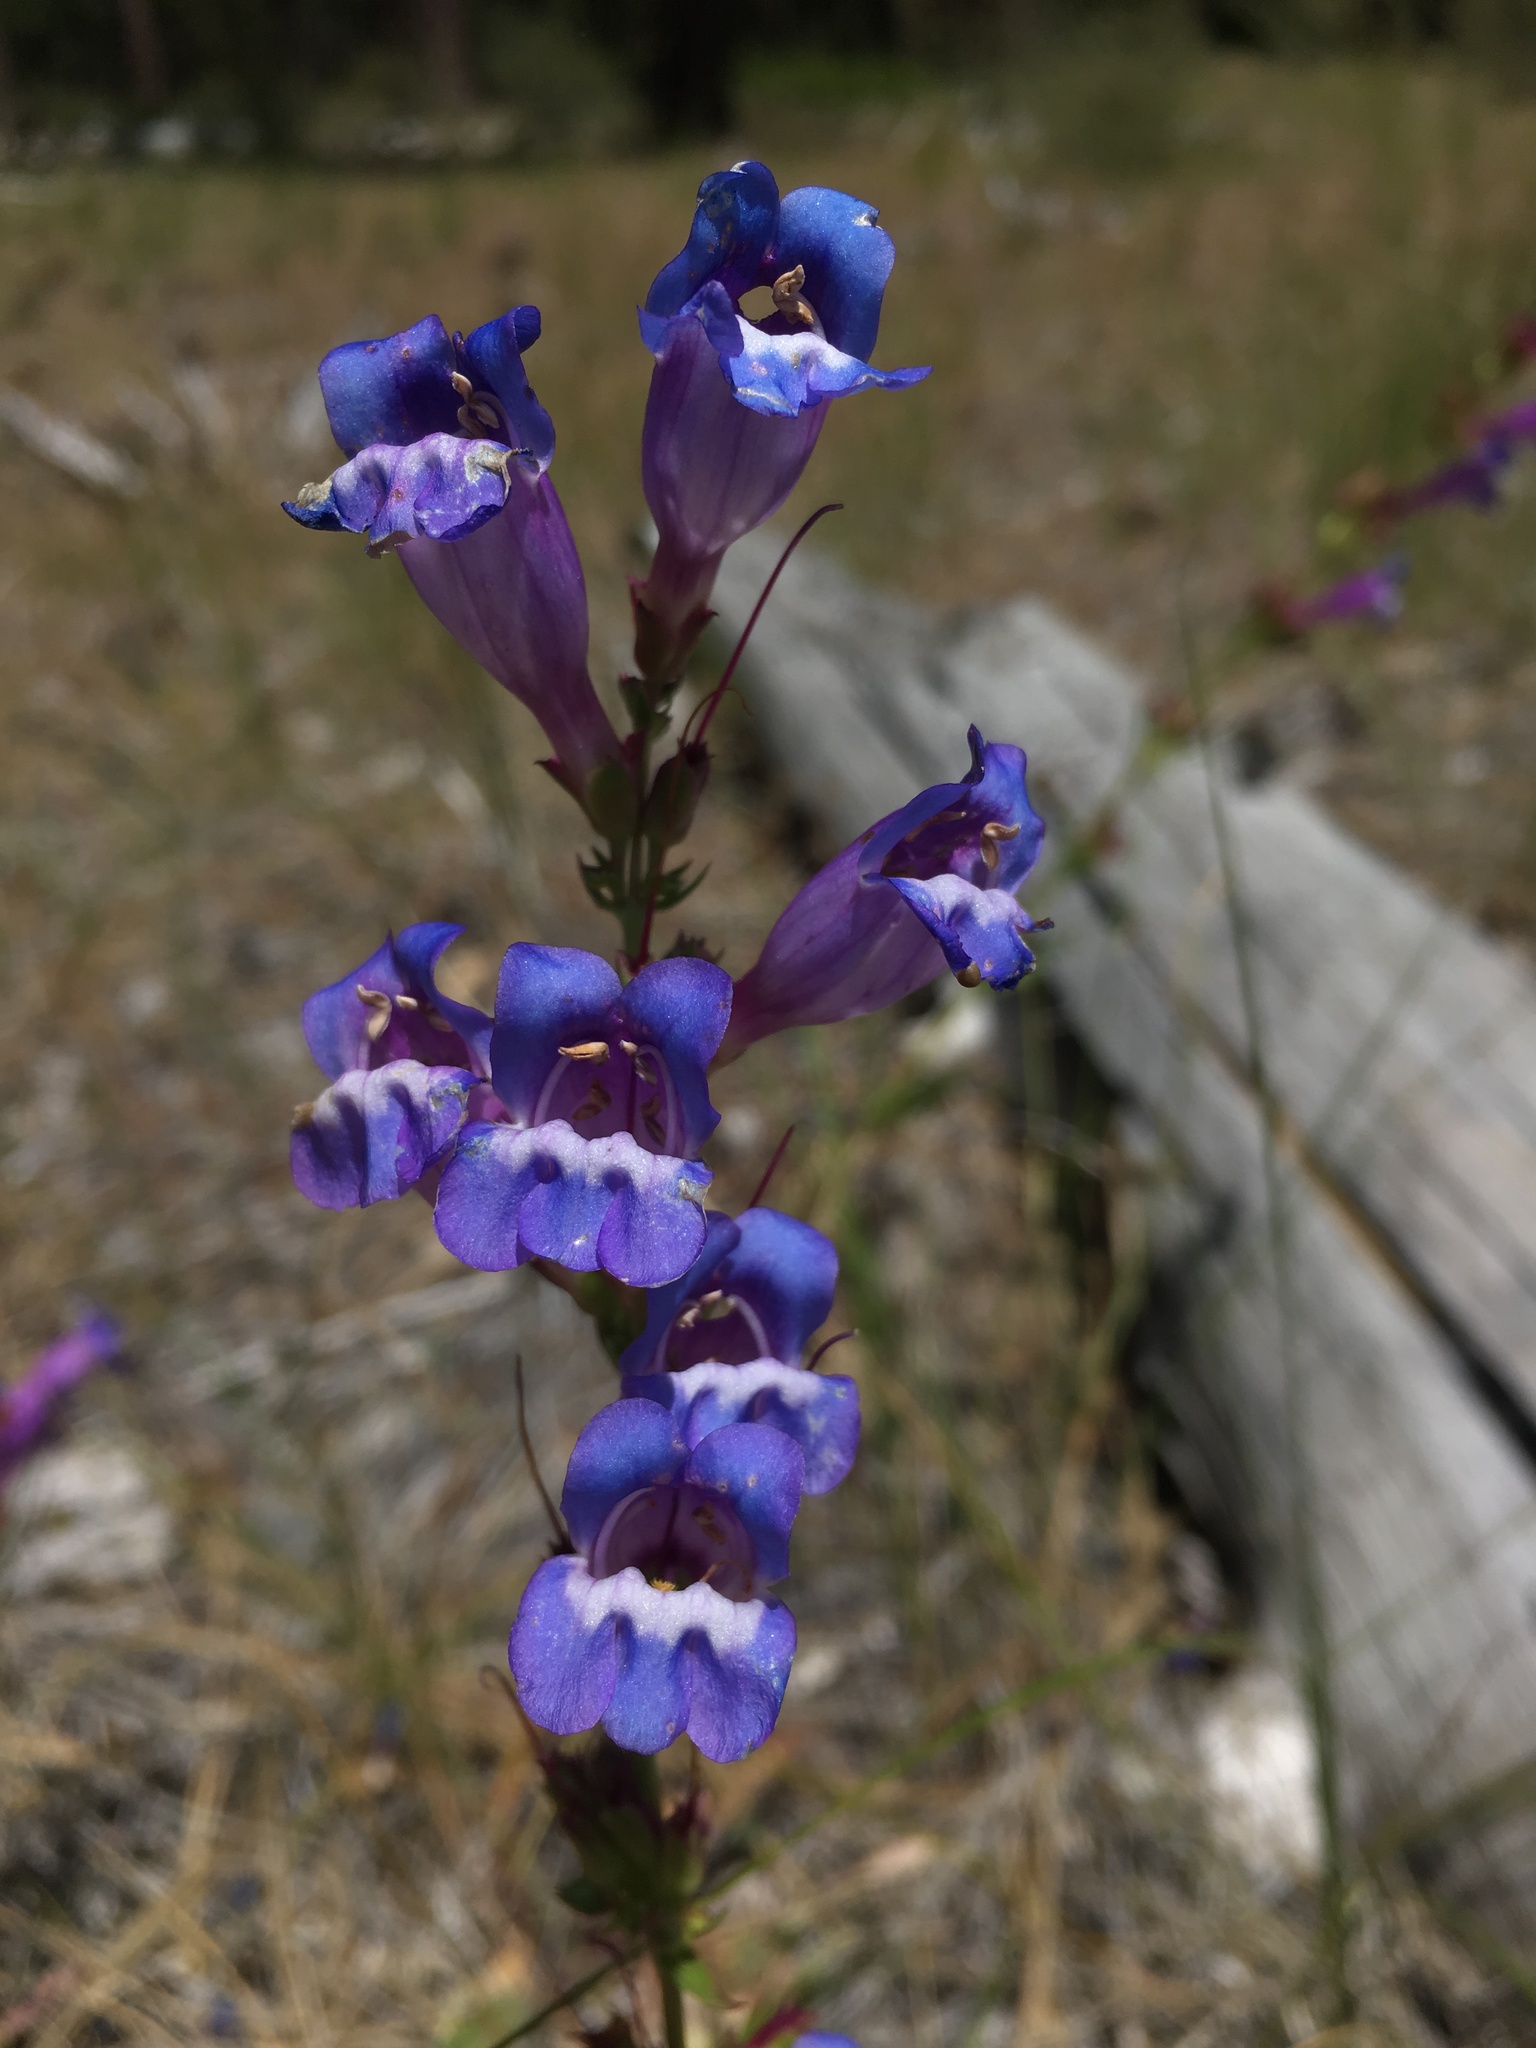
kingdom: Plantae
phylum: Tracheophyta
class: Magnoliopsida
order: Lamiales
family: Plantaginaceae
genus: Penstemon
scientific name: Penstemon speciosus
